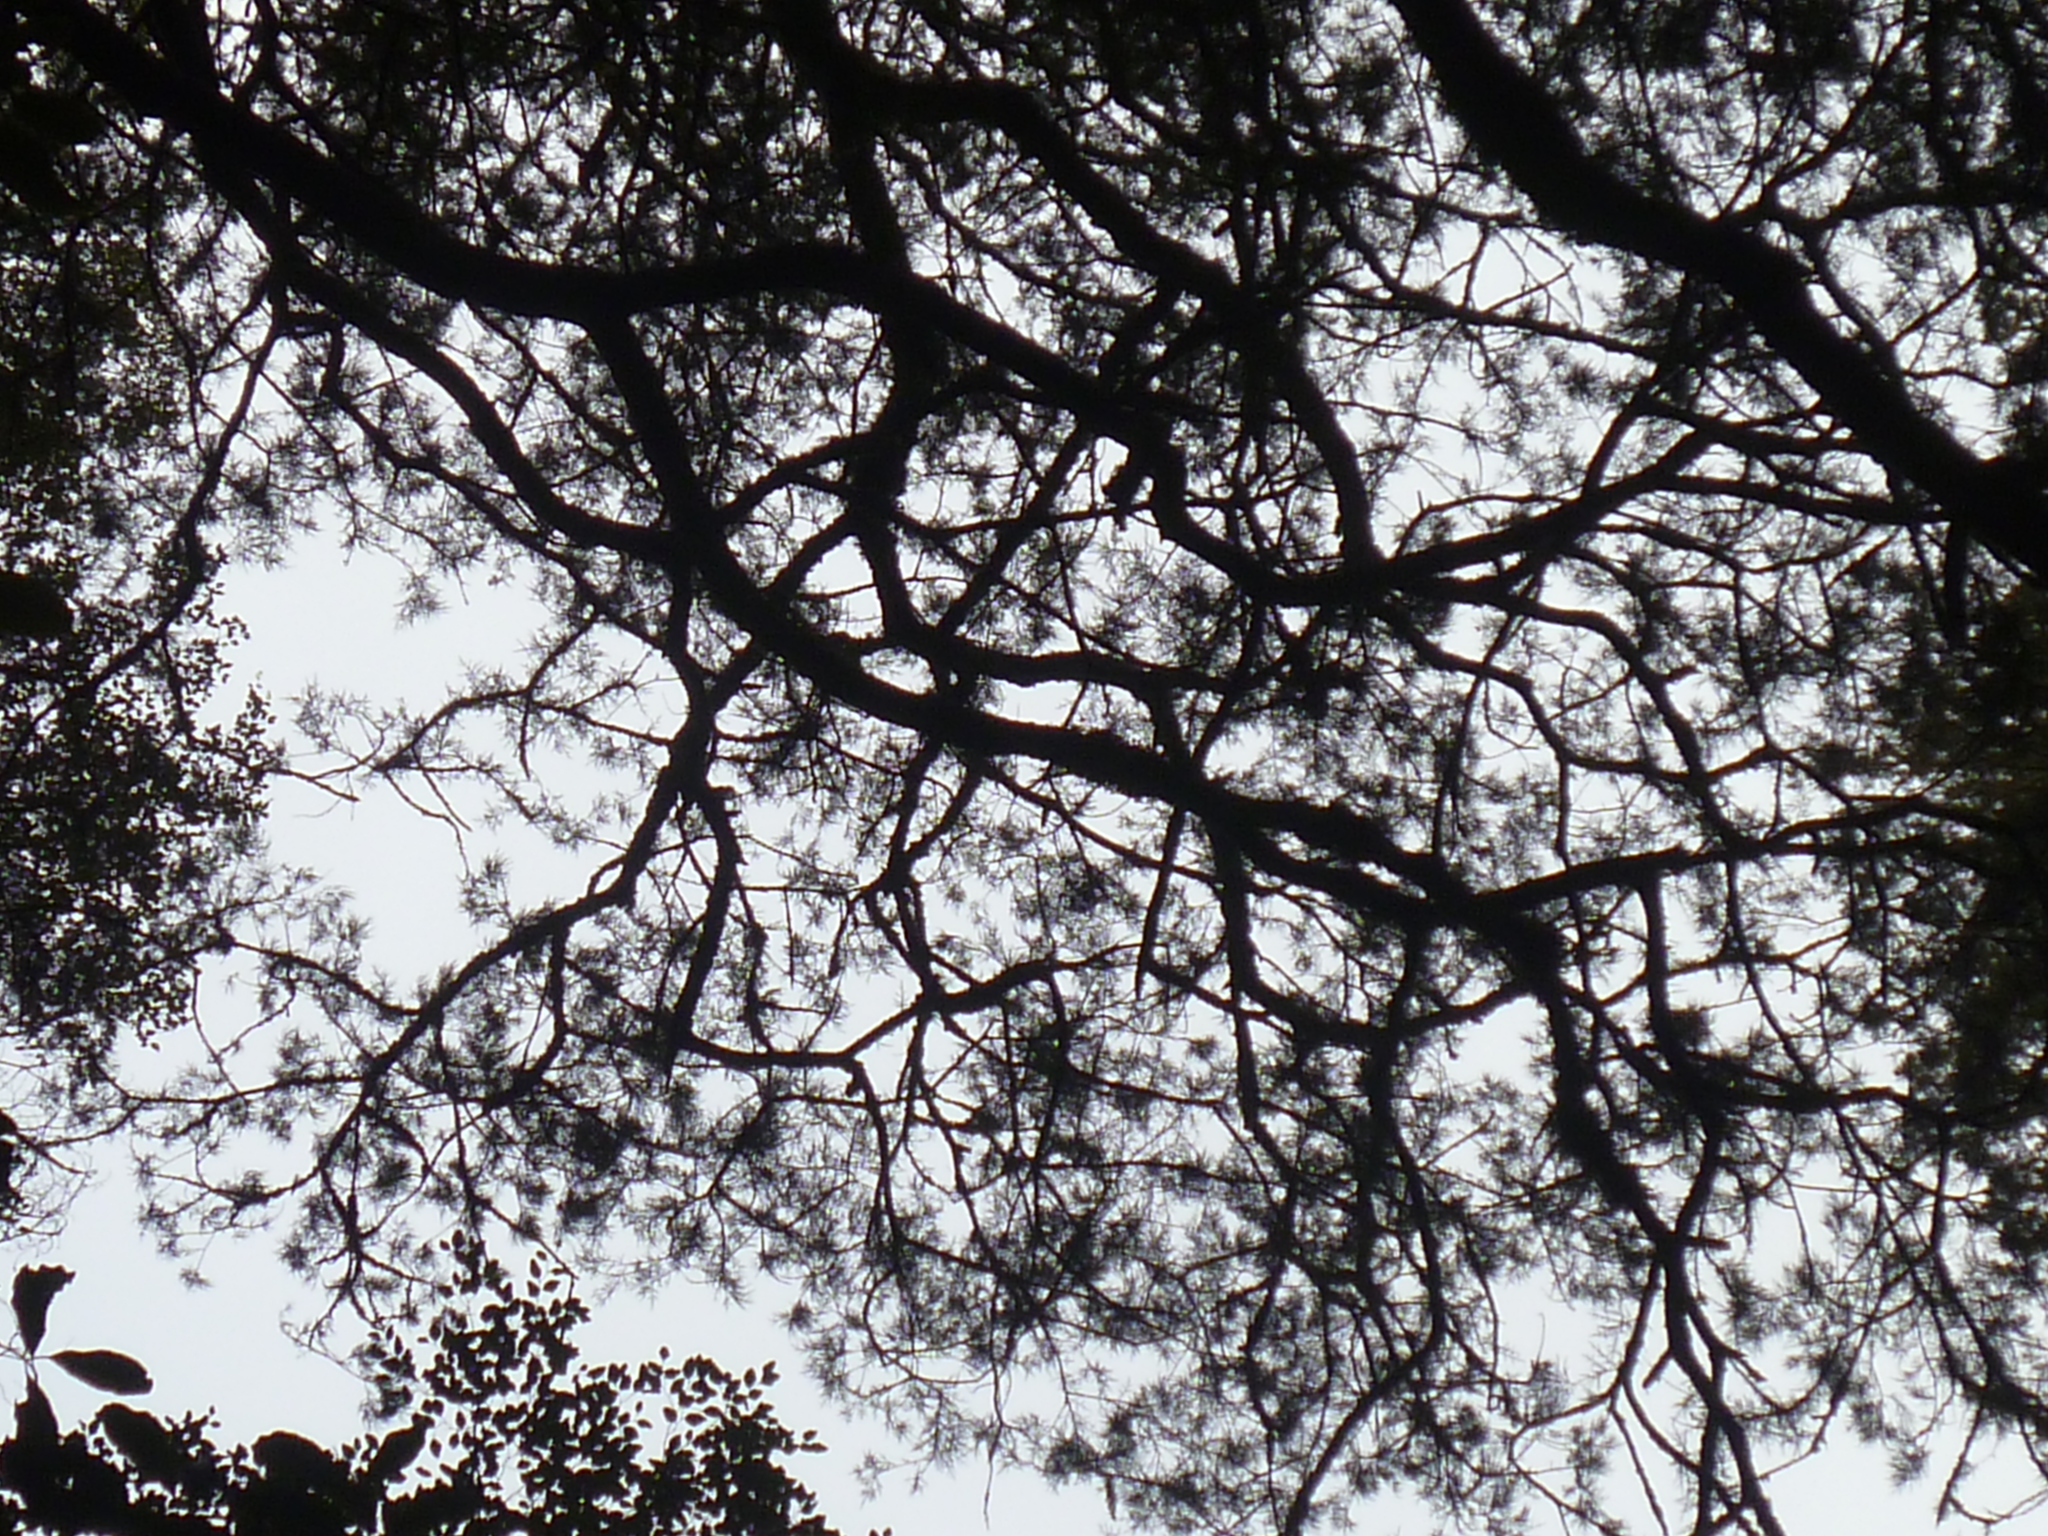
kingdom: Plantae
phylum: Tracheophyta
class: Pinopsida
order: Pinales
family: Podocarpaceae
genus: Prumnopitys
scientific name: Prumnopitys taxifolia
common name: Matai
